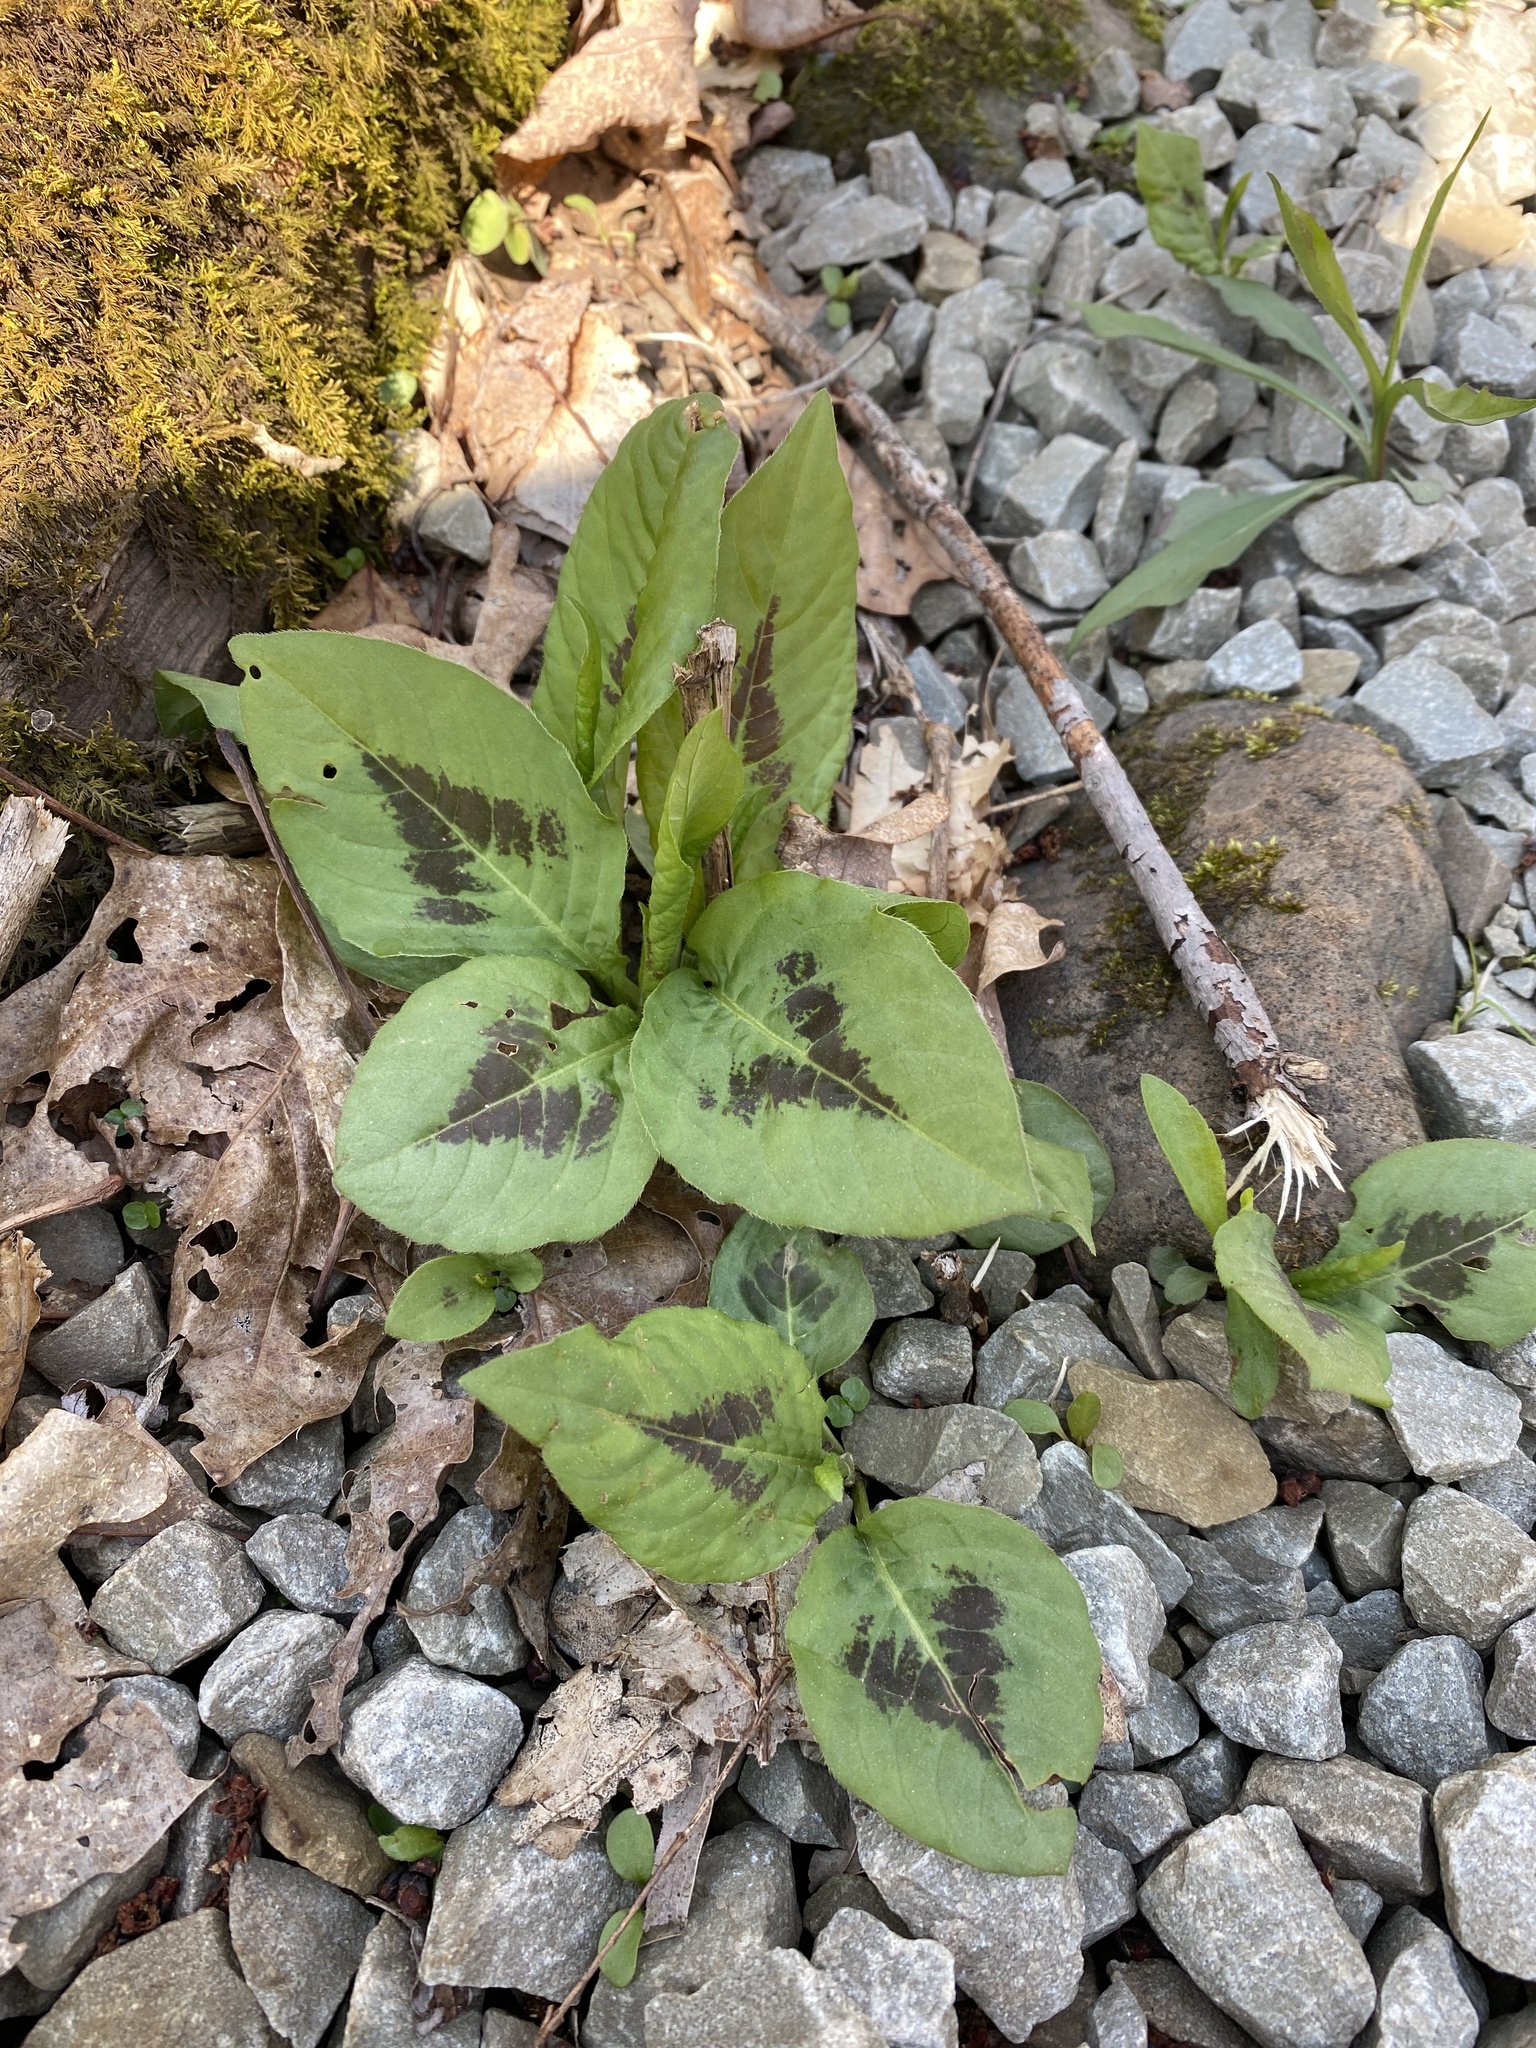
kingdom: Plantae
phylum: Tracheophyta
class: Magnoliopsida
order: Caryophyllales
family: Polygonaceae
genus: Persicaria
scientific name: Persicaria virginiana
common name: Jumpseed
